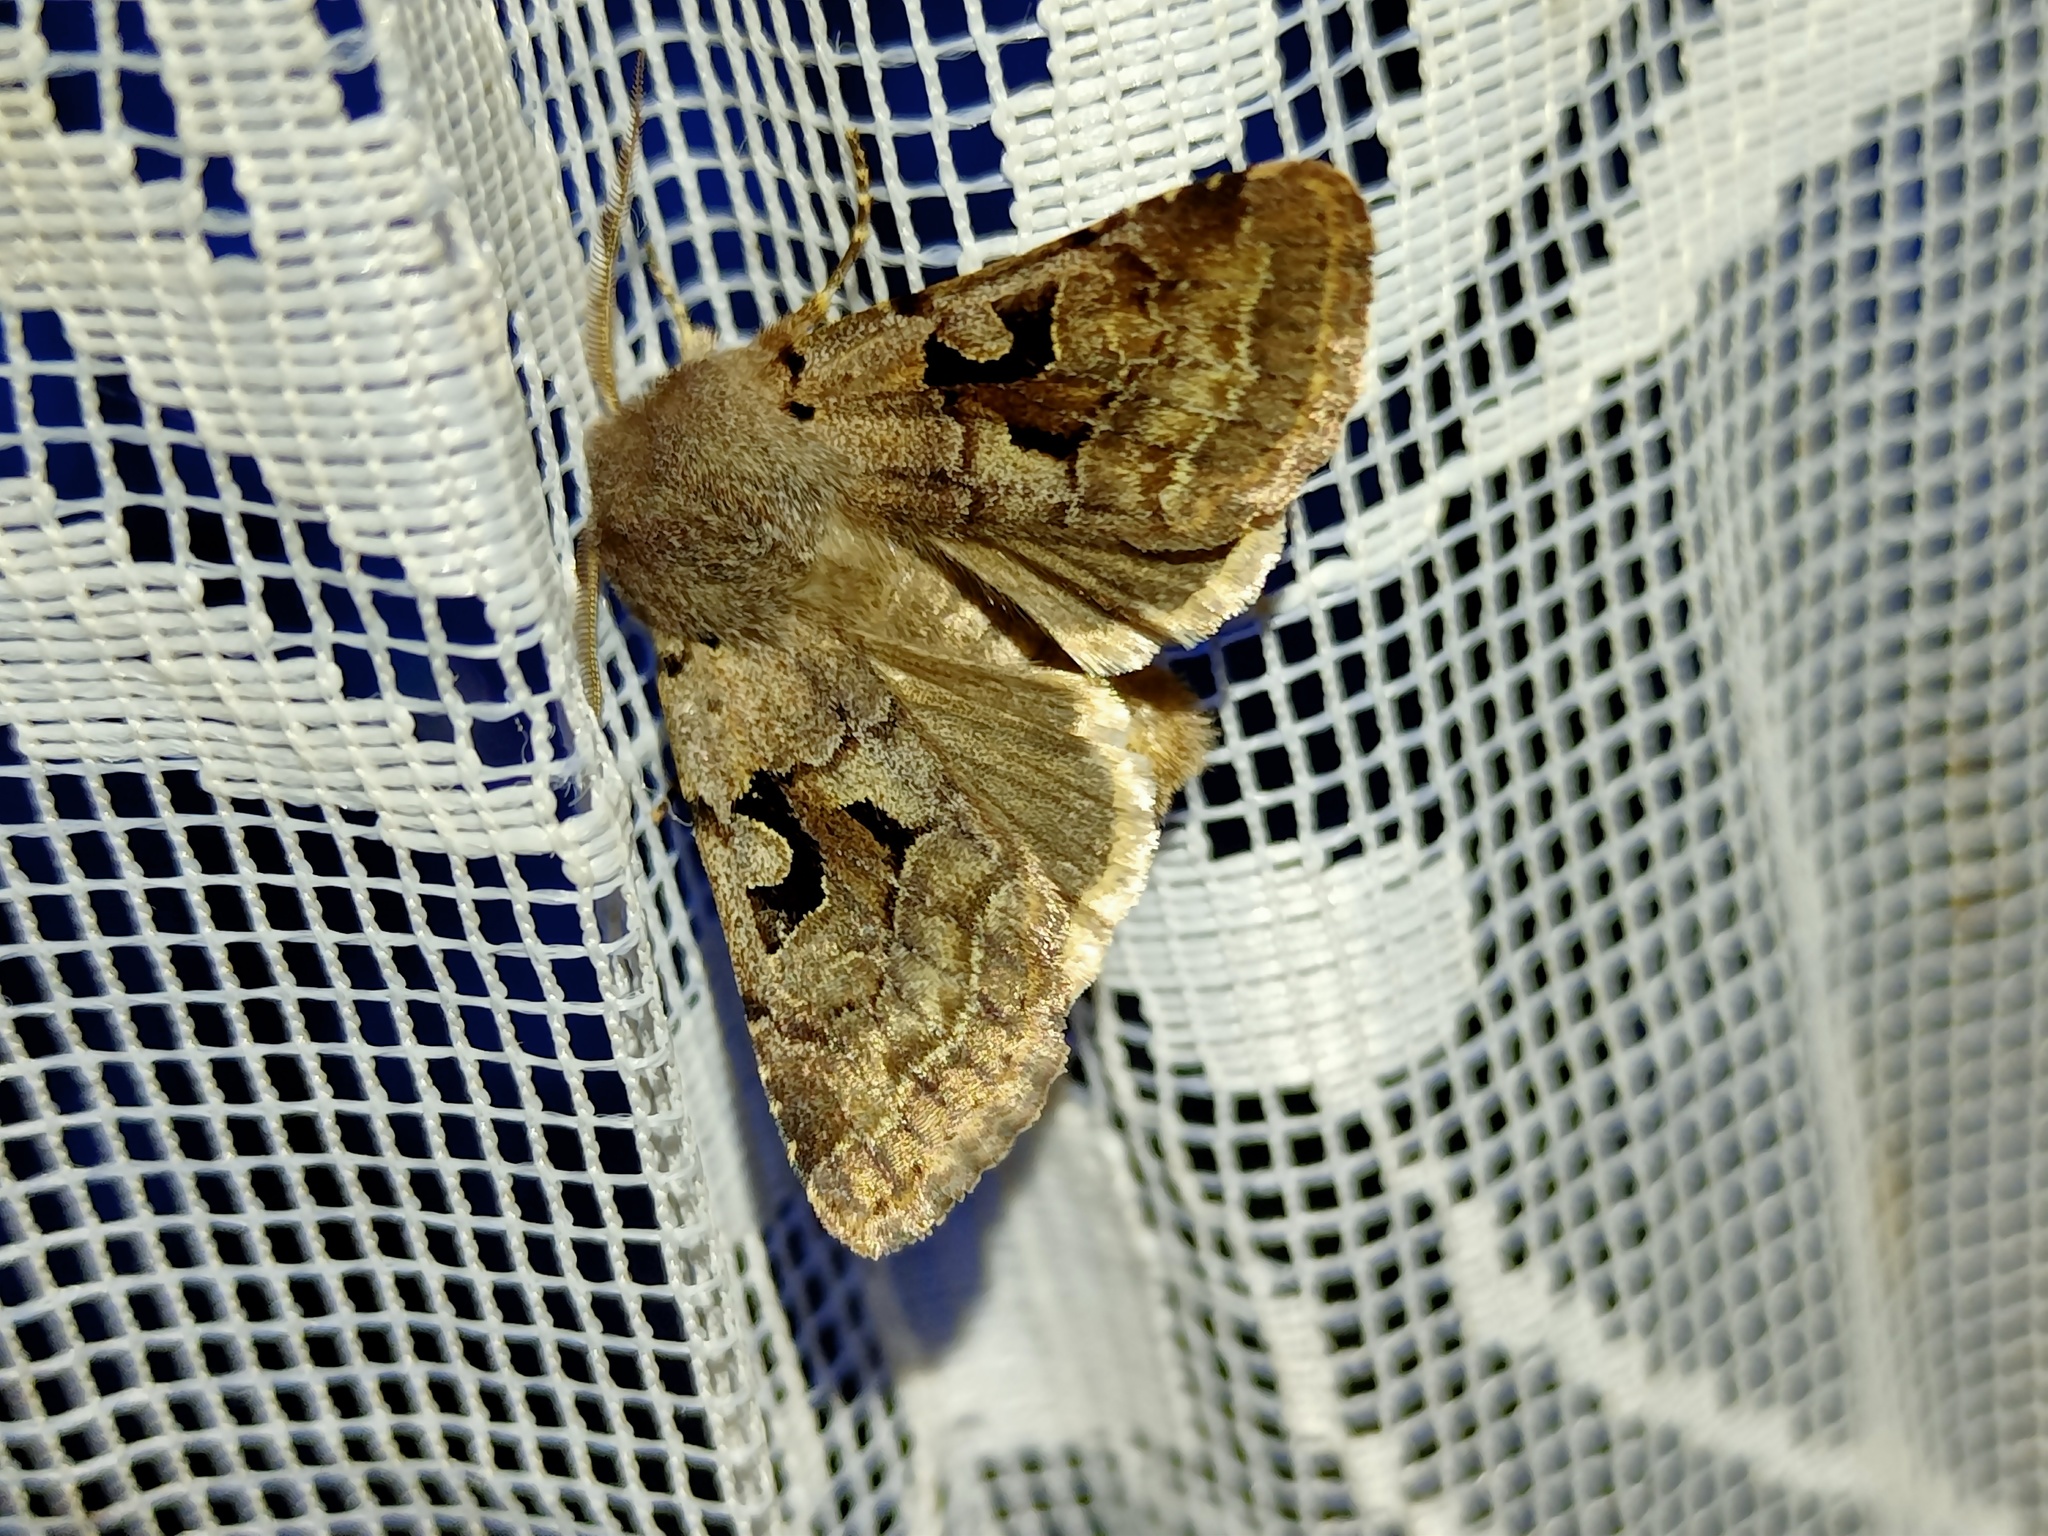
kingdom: Animalia
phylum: Arthropoda
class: Insecta
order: Lepidoptera
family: Noctuidae
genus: Orthosia
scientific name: Orthosia gothica
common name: Hebrew character
